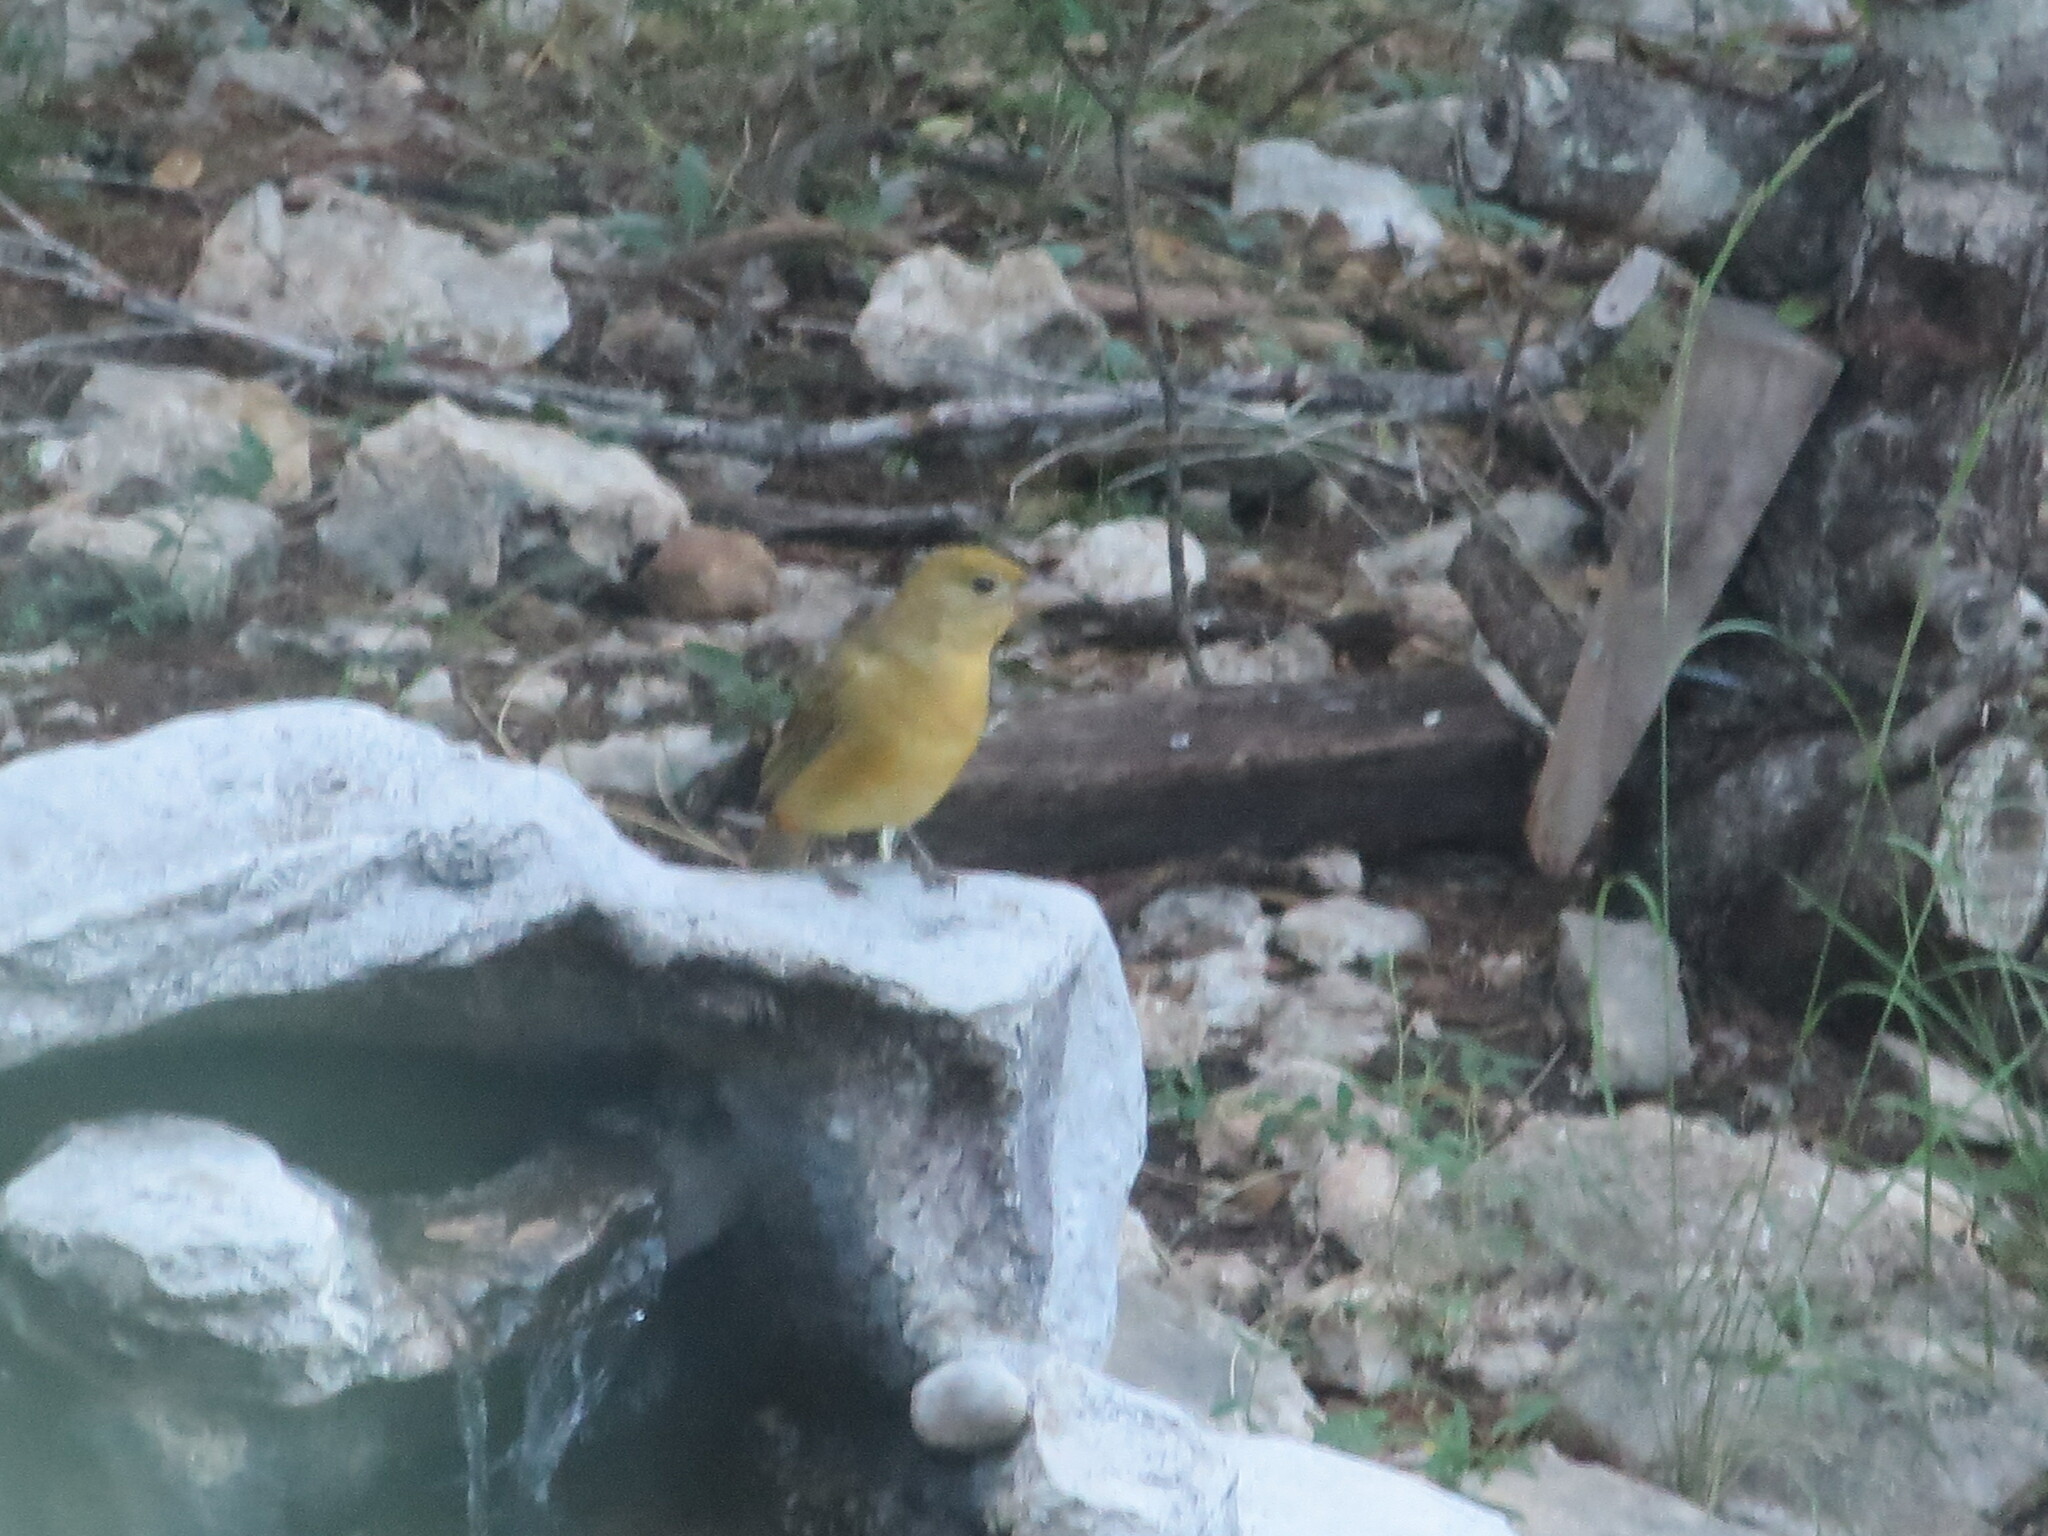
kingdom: Animalia
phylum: Chordata
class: Aves
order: Passeriformes
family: Cardinalidae
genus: Piranga
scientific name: Piranga rubra
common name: Summer tanager
